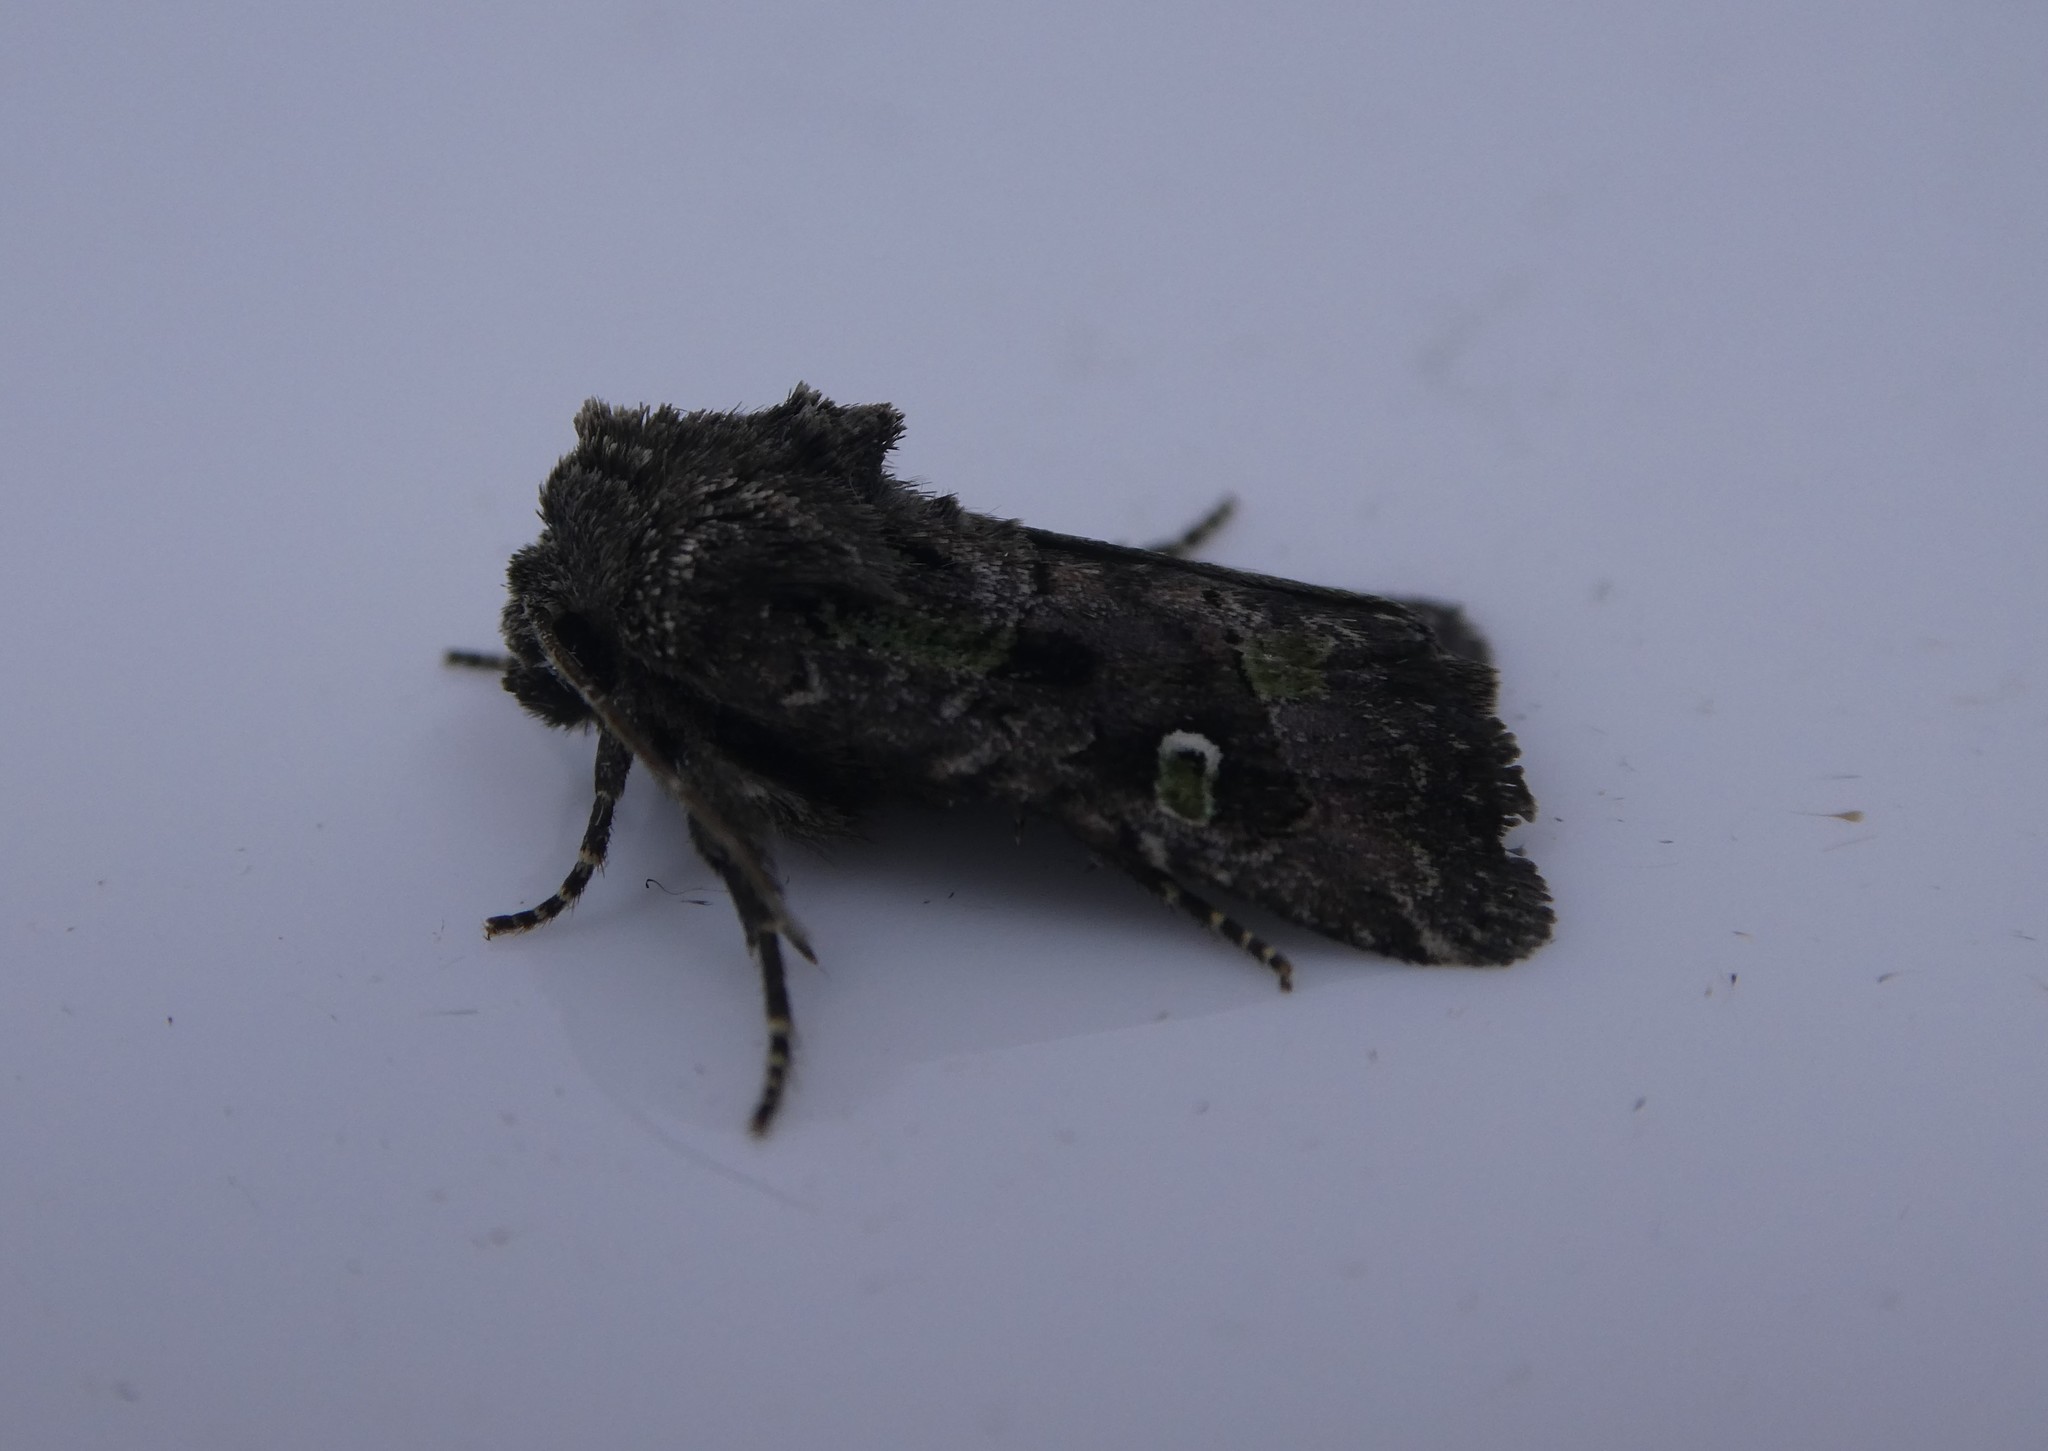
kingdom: Animalia
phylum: Arthropoda
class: Insecta
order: Lepidoptera
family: Noctuidae
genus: Lacinipolia
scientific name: Lacinipolia renigera
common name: Kidney-spotted minor
